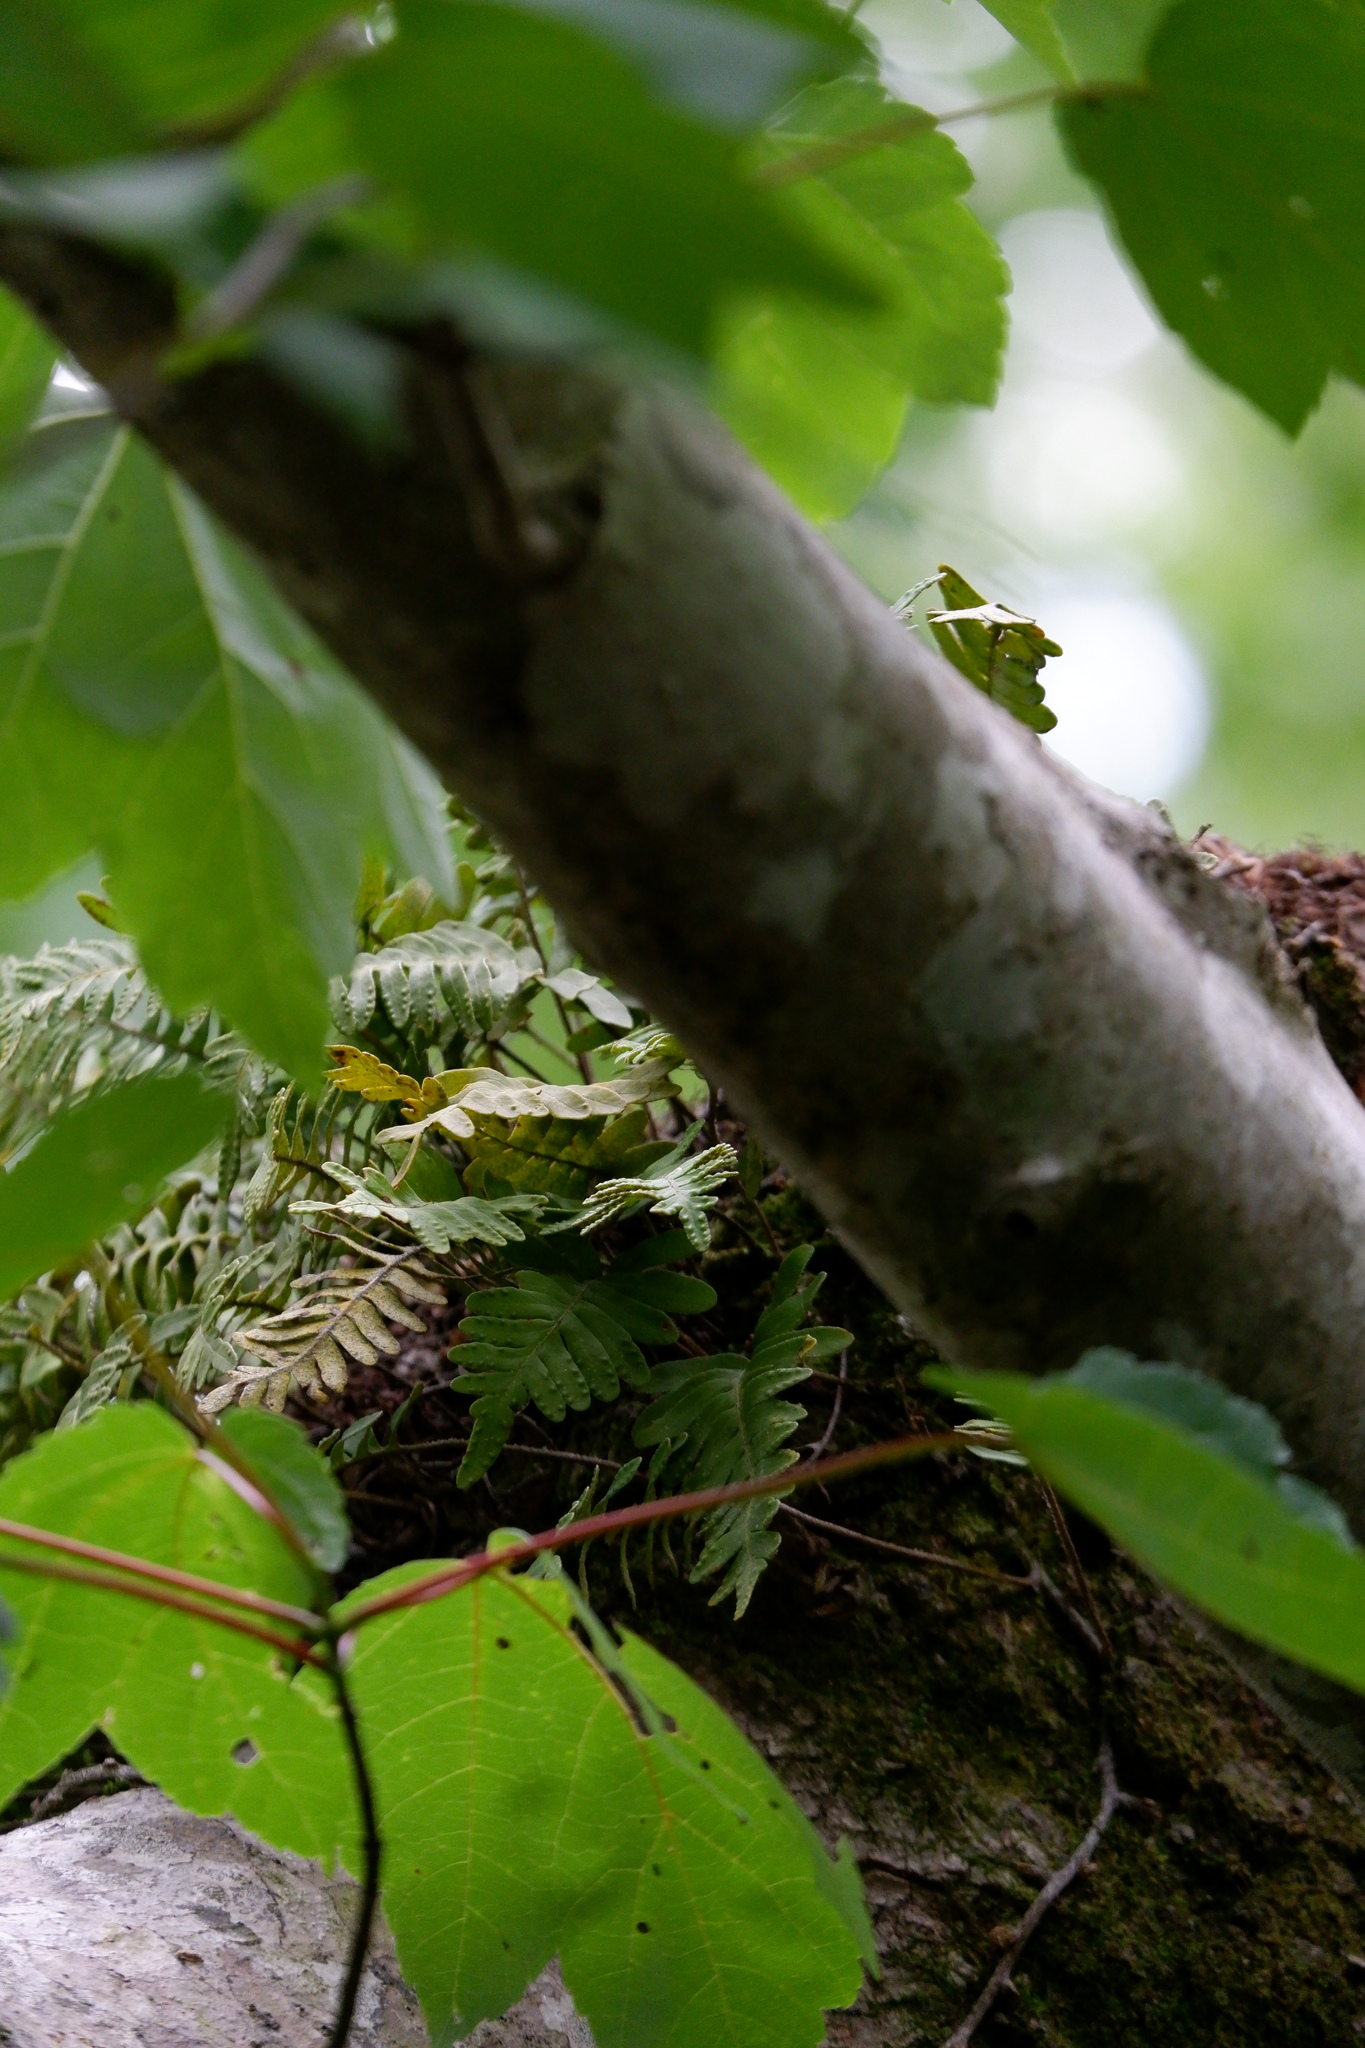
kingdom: Plantae
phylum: Tracheophyta
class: Polypodiopsida
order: Polypodiales
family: Polypodiaceae
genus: Pleopeltis
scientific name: Pleopeltis michauxiana
